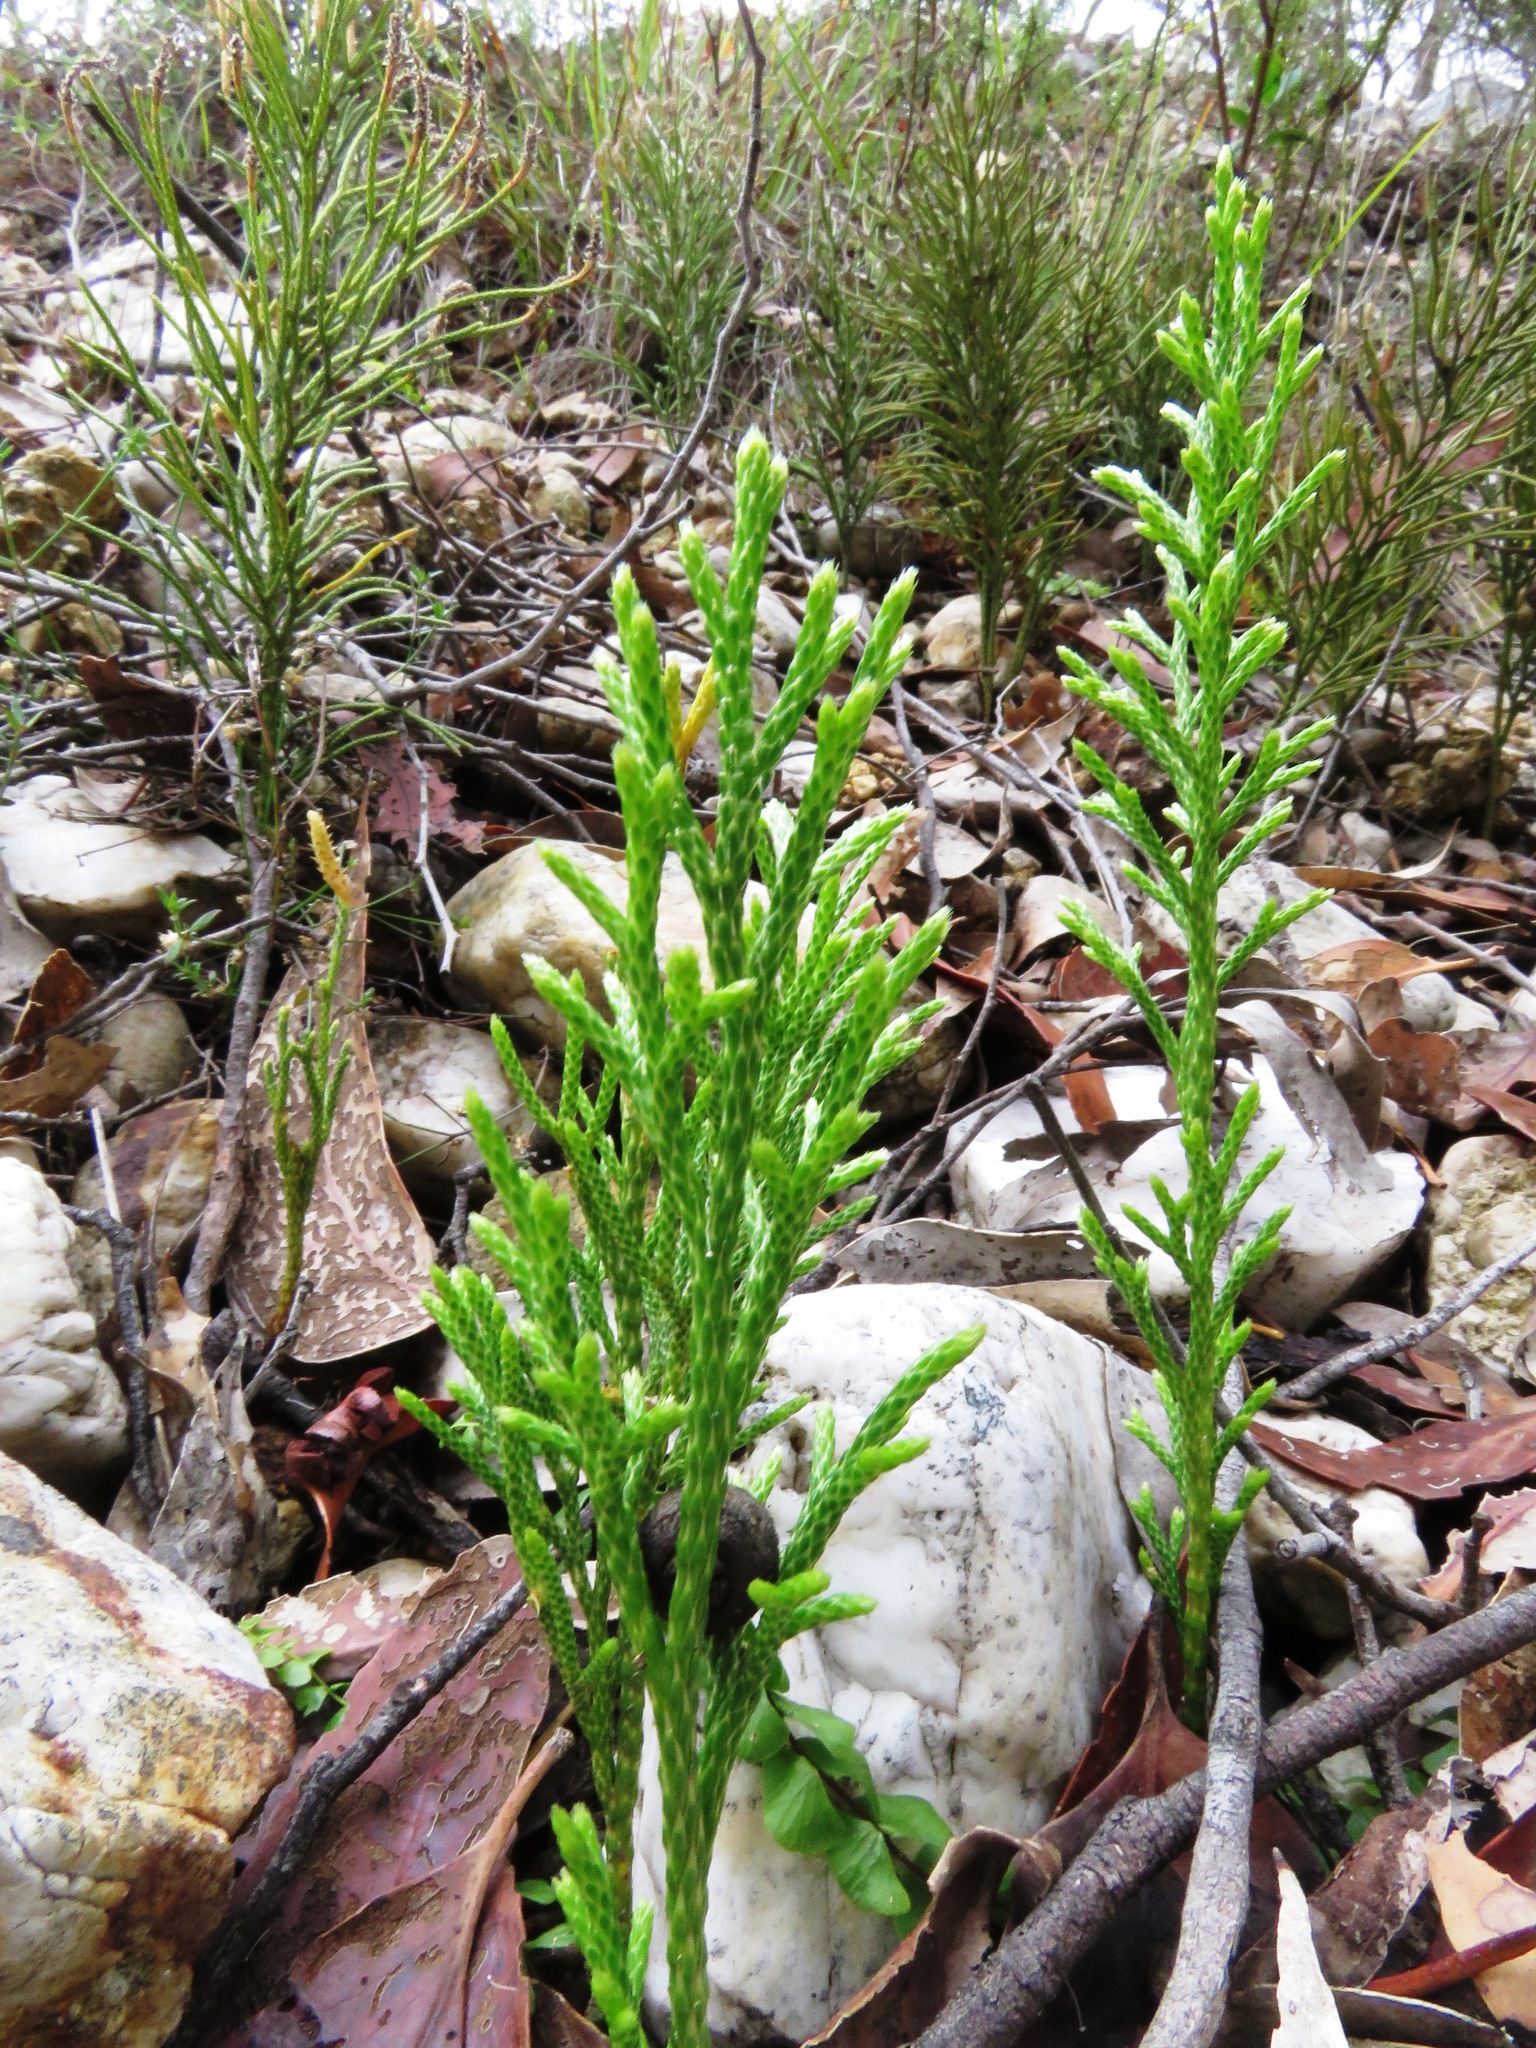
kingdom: Plantae
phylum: Tracheophyta
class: Lycopodiopsida
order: Lycopodiales
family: Lycopodiaceae
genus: Pseudolycopodium
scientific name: Pseudolycopodium densum
